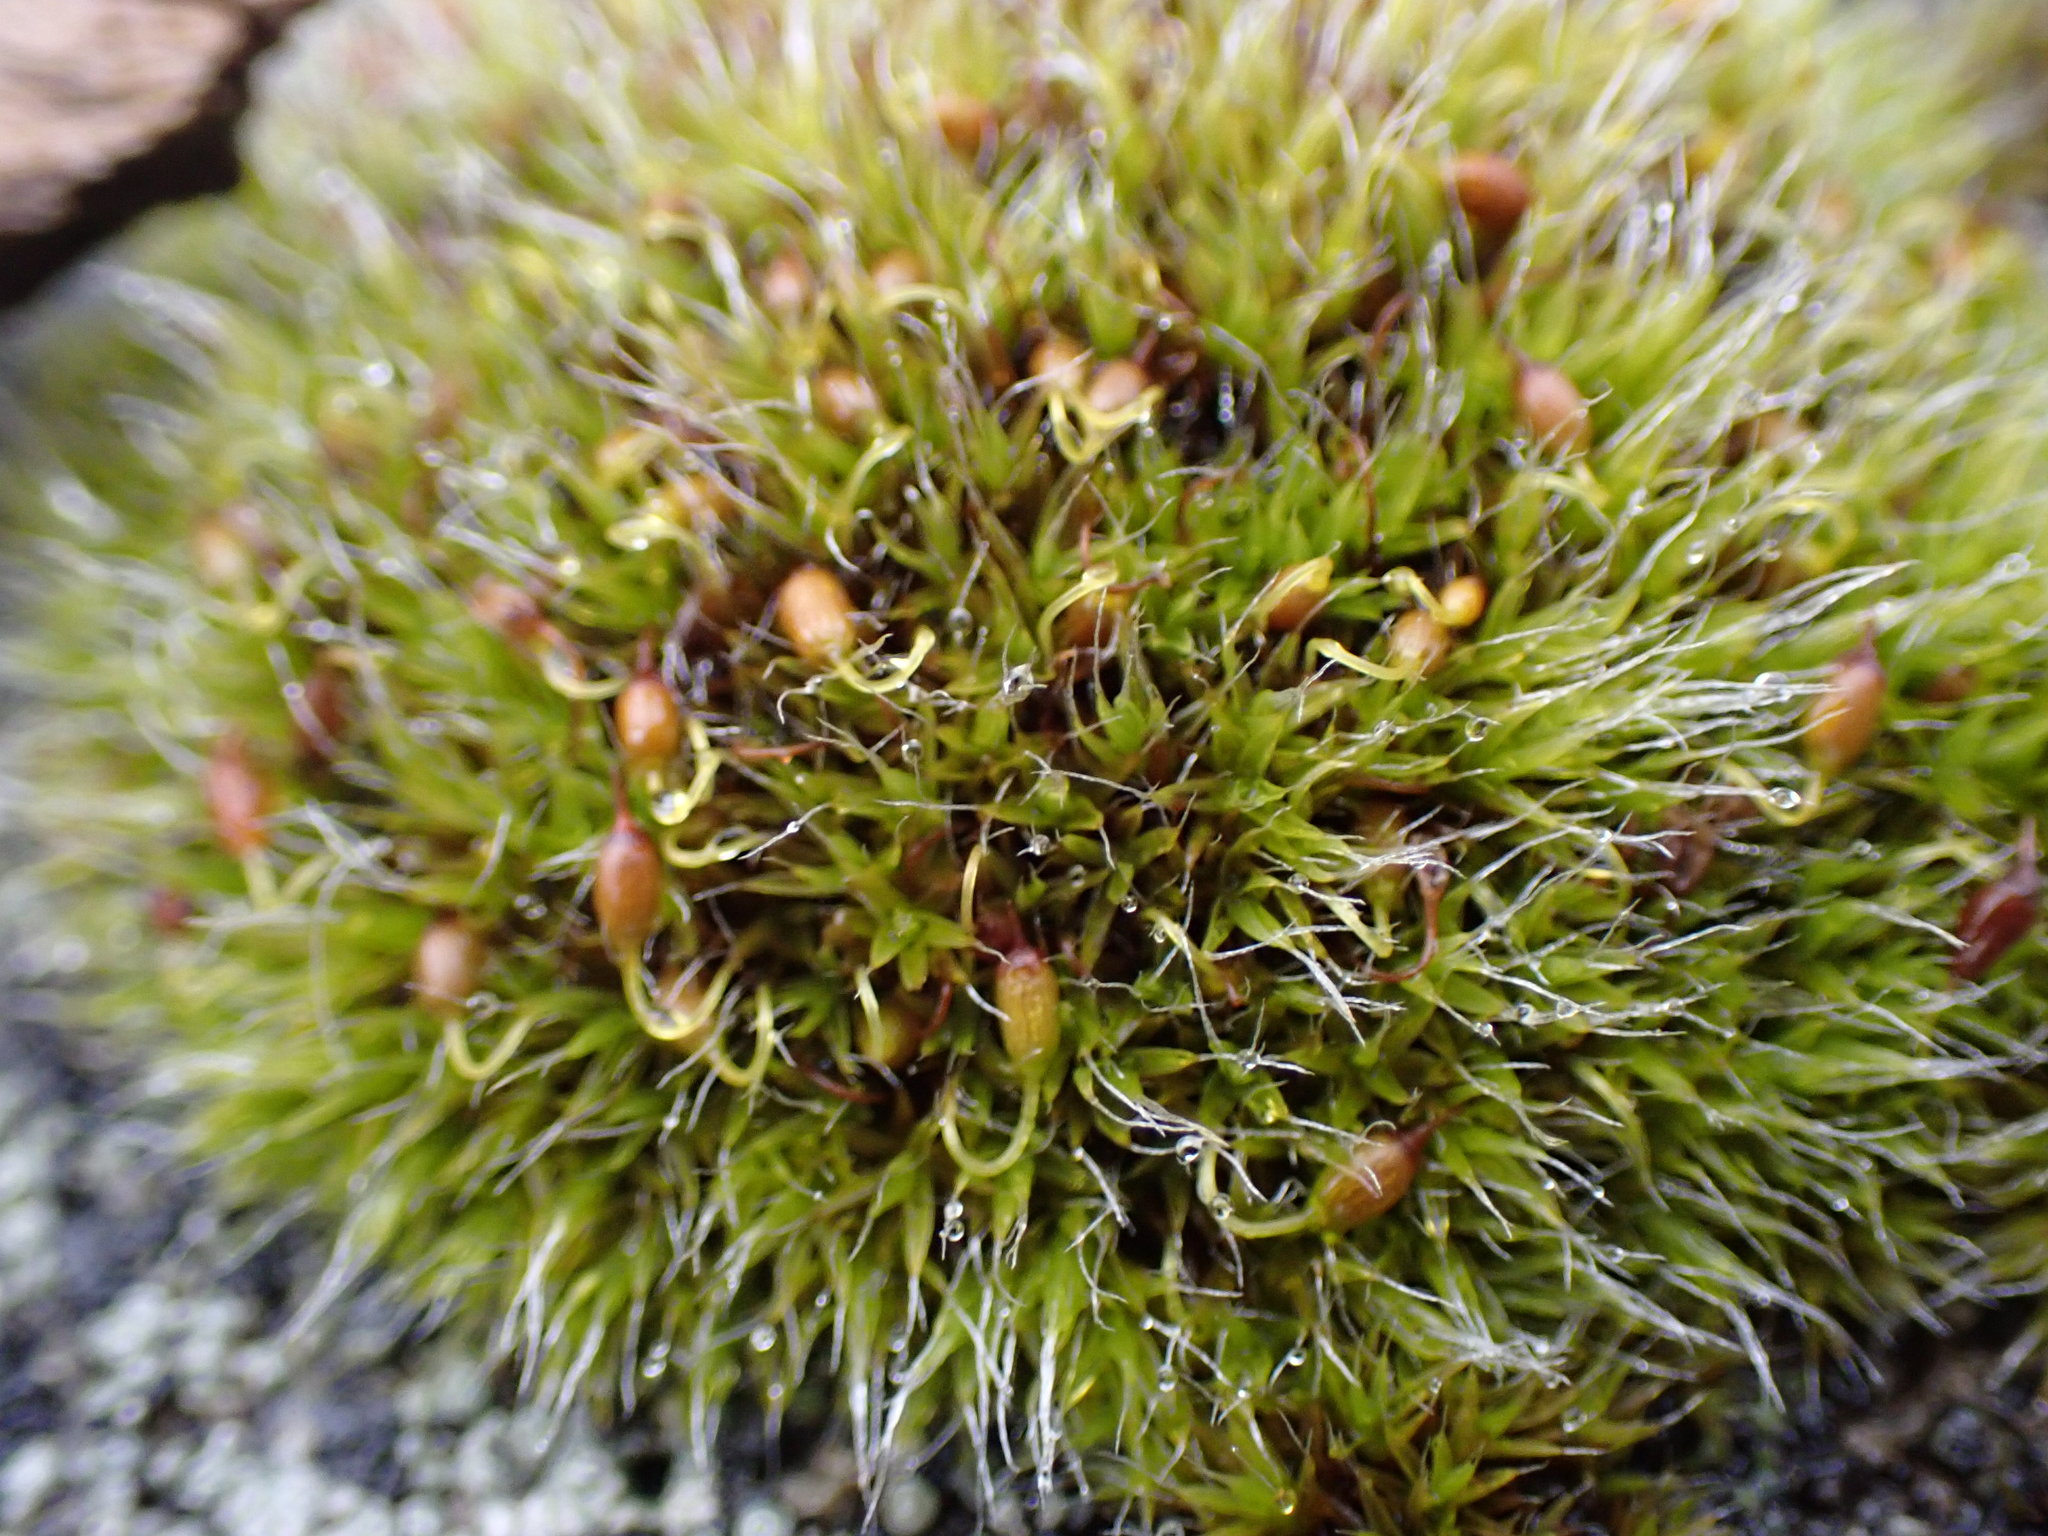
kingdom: Plantae
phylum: Bryophyta
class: Bryopsida
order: Grimmiales
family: Grimmiaceae
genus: Grimmia
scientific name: Grimmia pulvinata
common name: Grey-cushioned grimmia
